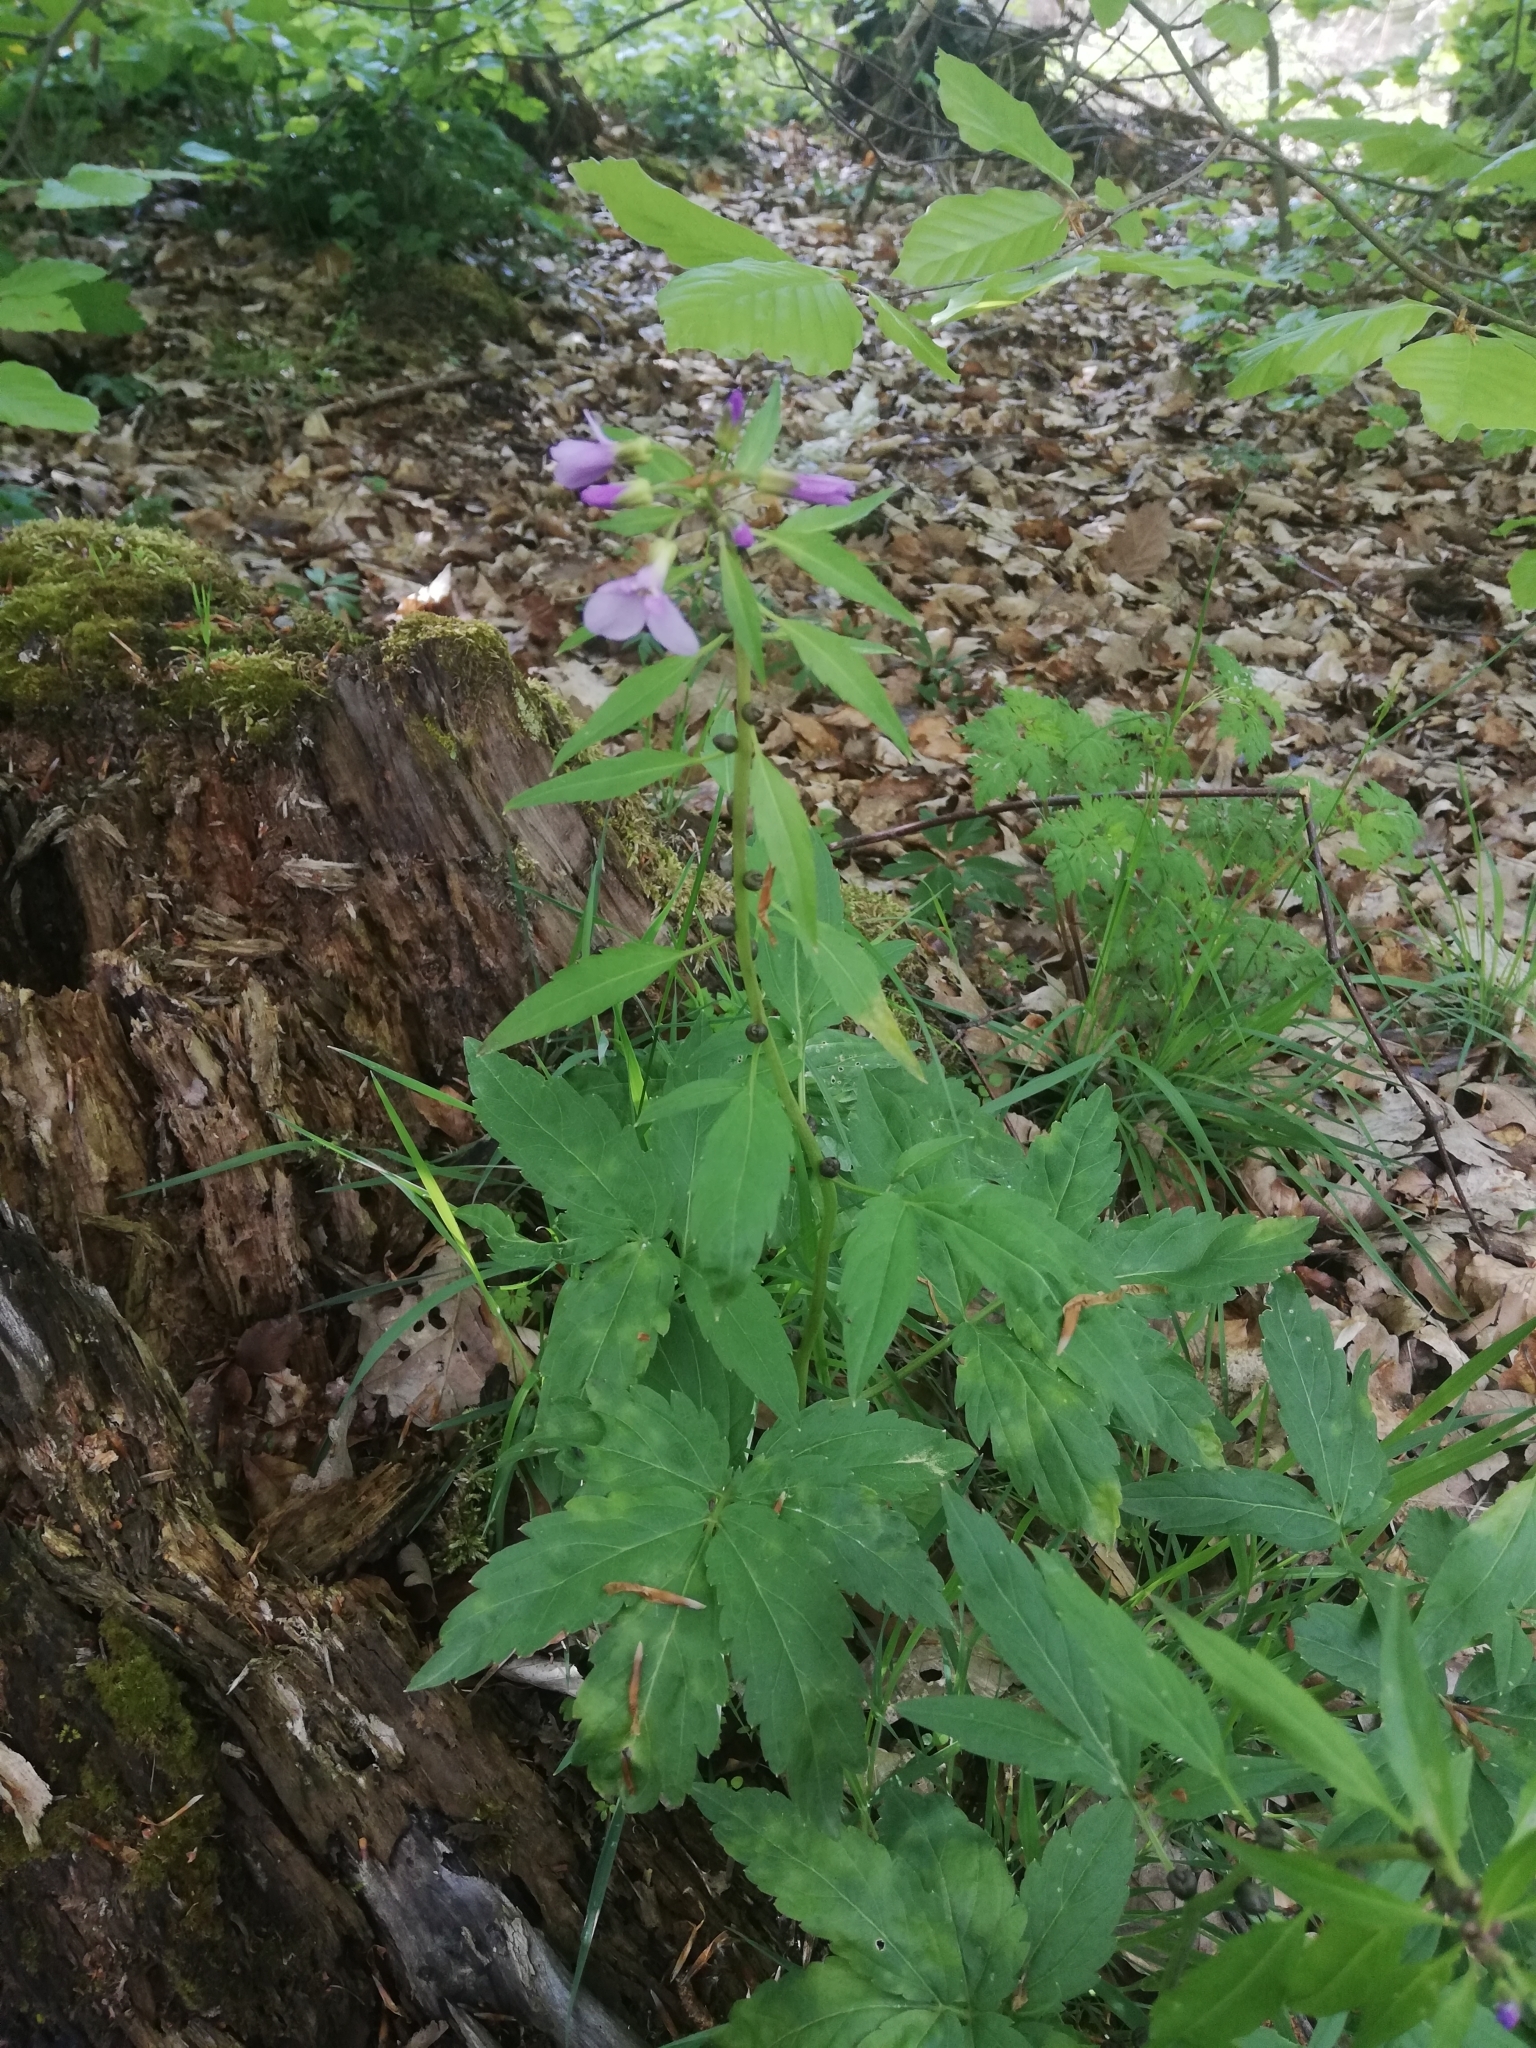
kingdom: Plantae
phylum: Tracheophyta
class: Magnoliopsida
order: Brassicales
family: Brassicaceae
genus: Cardamine
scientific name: Cardamine bulbifera
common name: Coralroot bittercress
